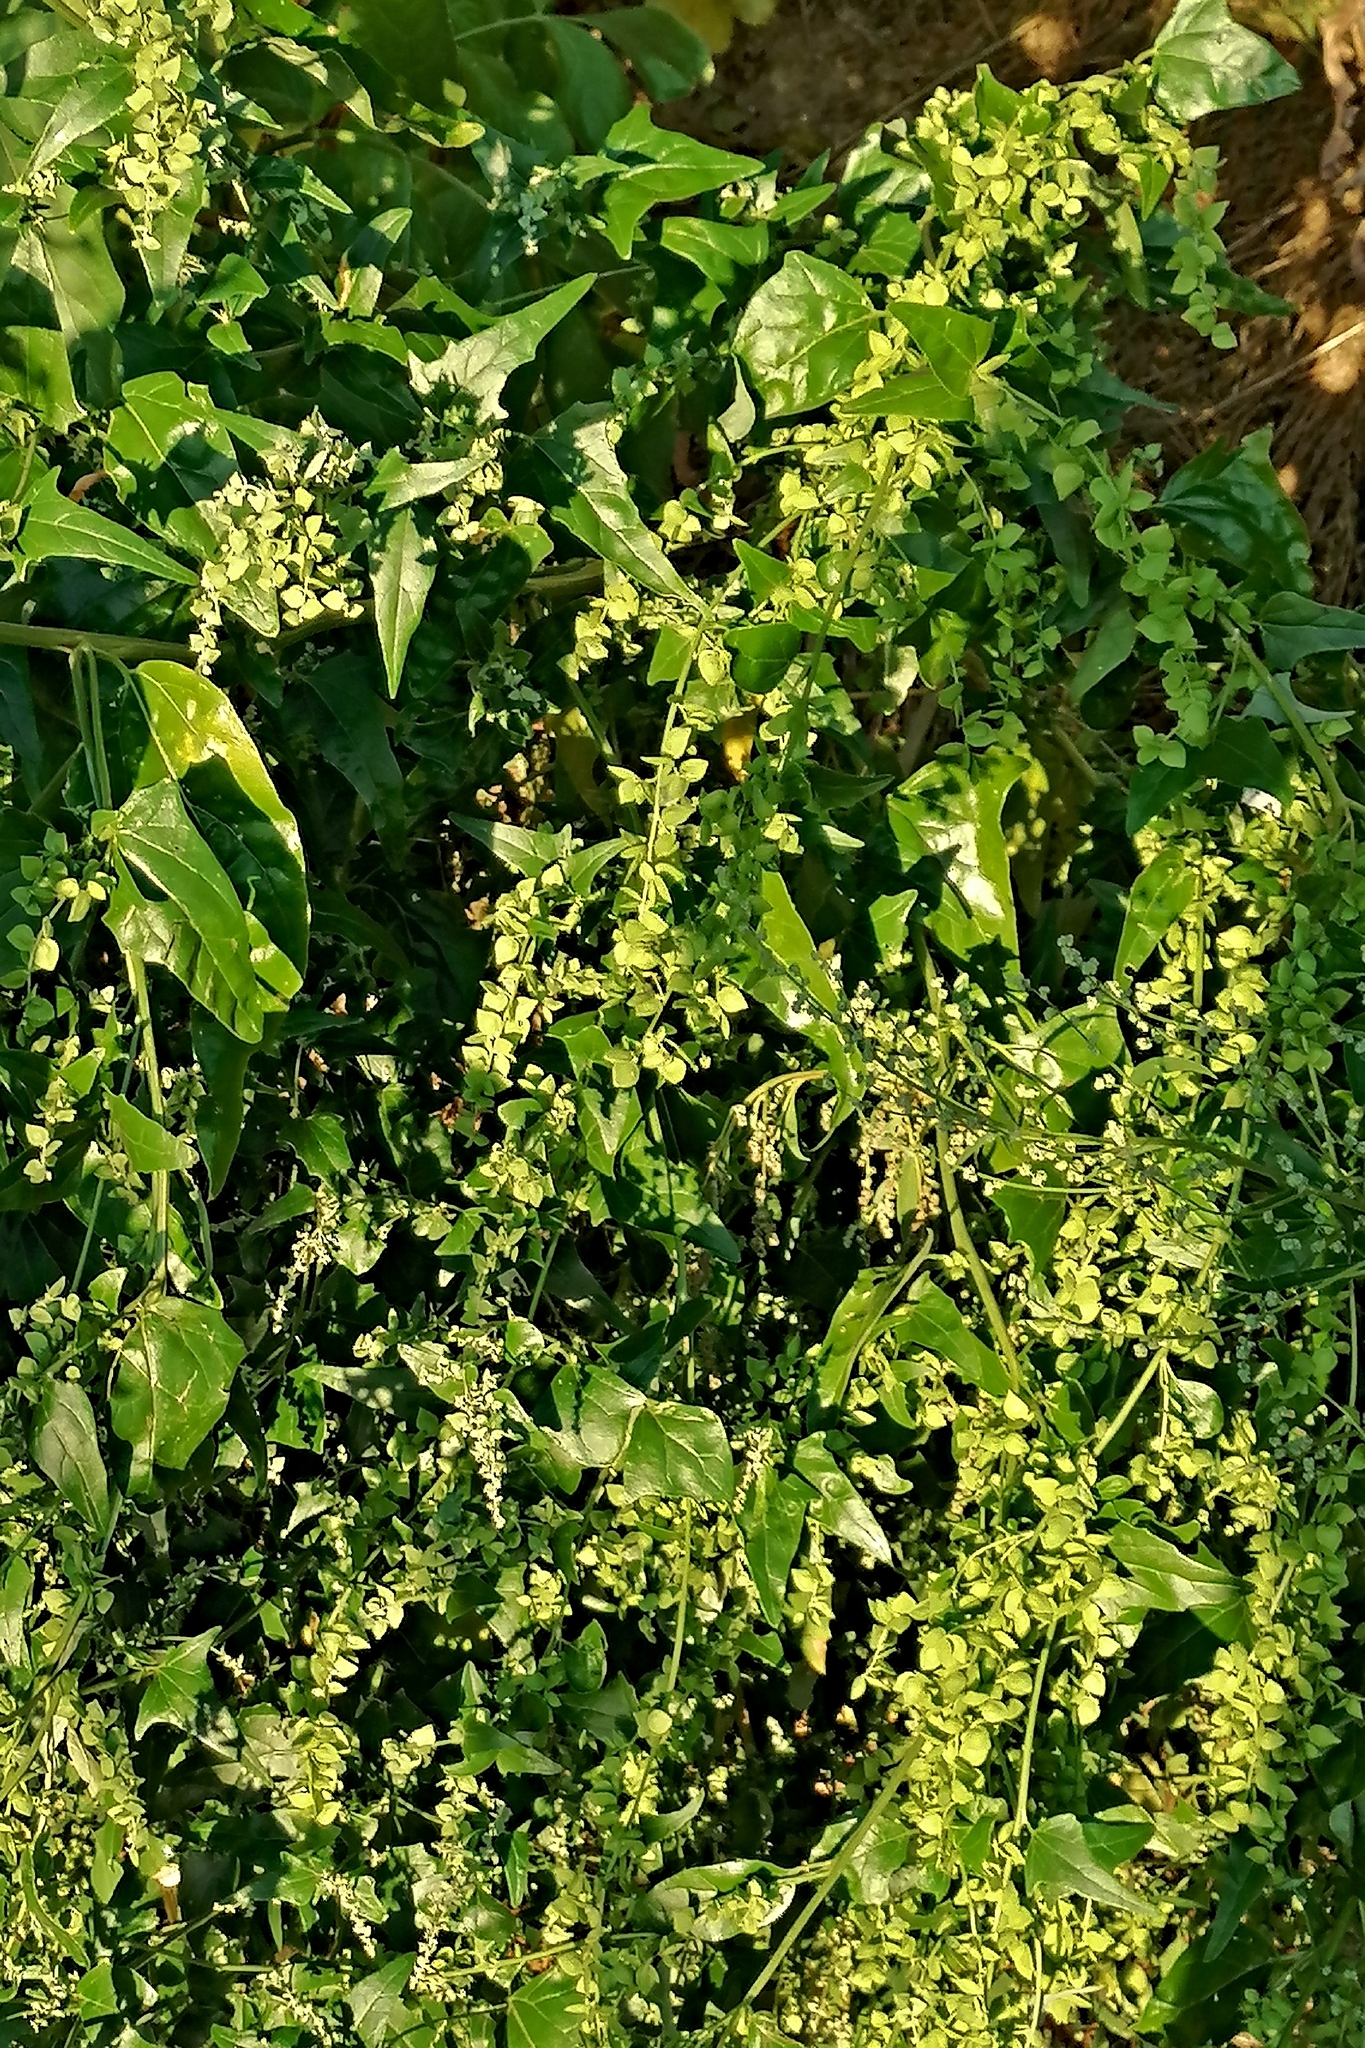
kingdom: Plantae
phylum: Tracheophyta
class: Magnoliopsida
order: Caryophyllales
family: Amaranthaceae
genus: Atriplex
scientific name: Atriplex sagittata
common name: Purple orache
